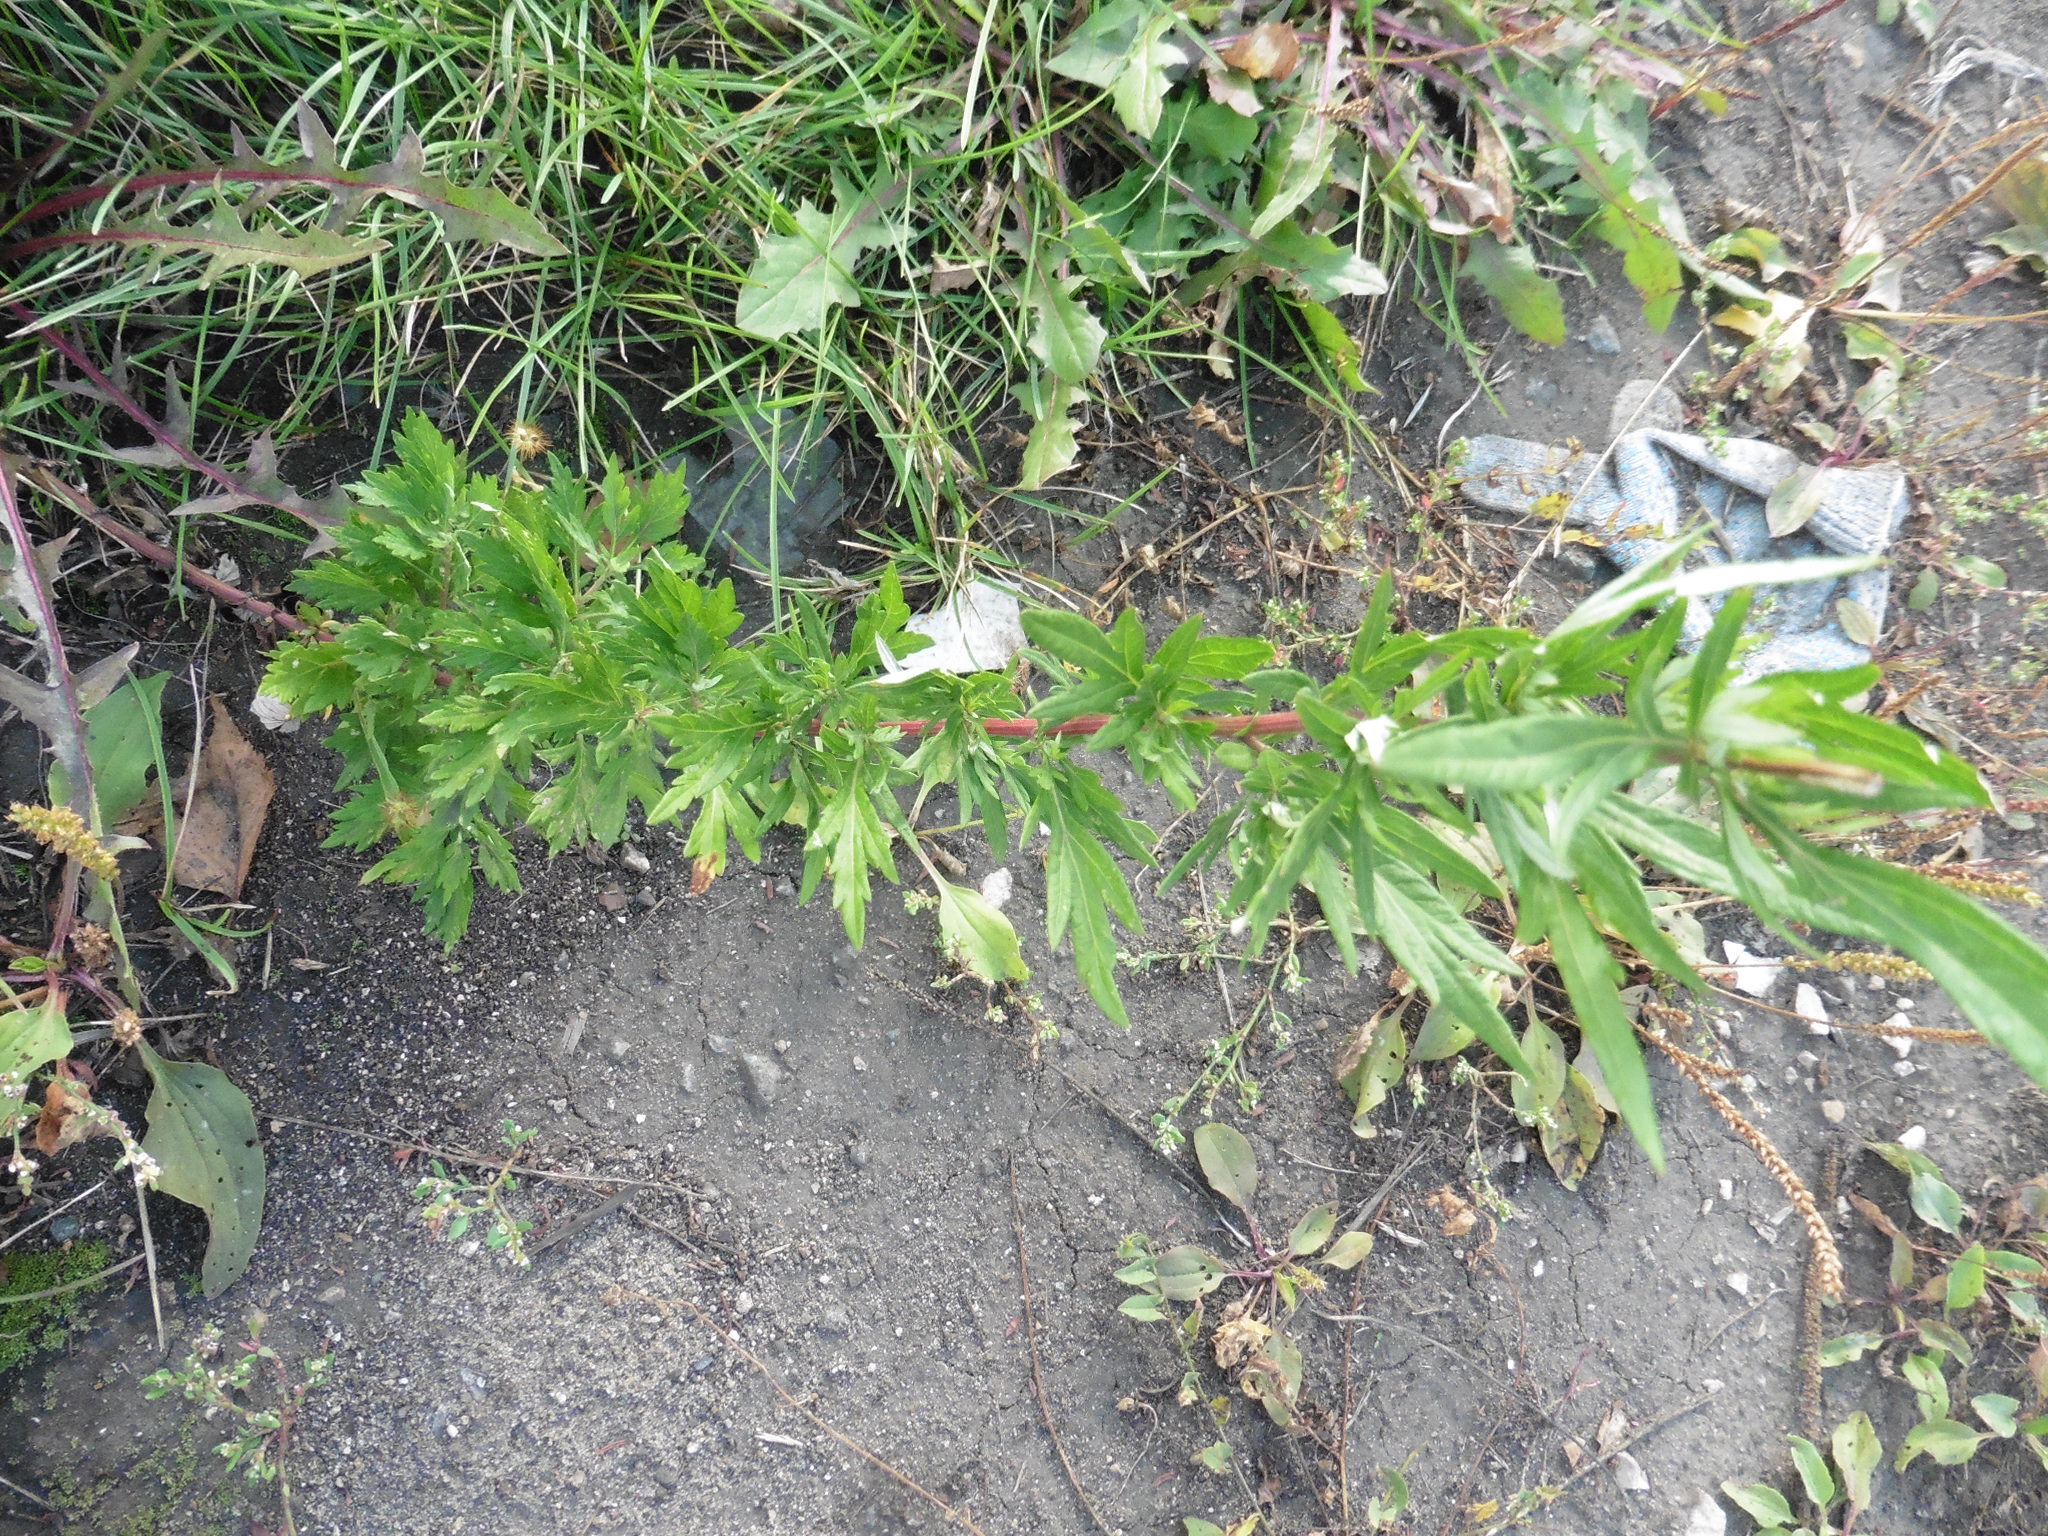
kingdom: Plantae
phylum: Tracheophyta
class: Magnoliopsida
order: Asterales
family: Asteraceae
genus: Artemisia
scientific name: Artemisia vulgaris
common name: Mugwort
